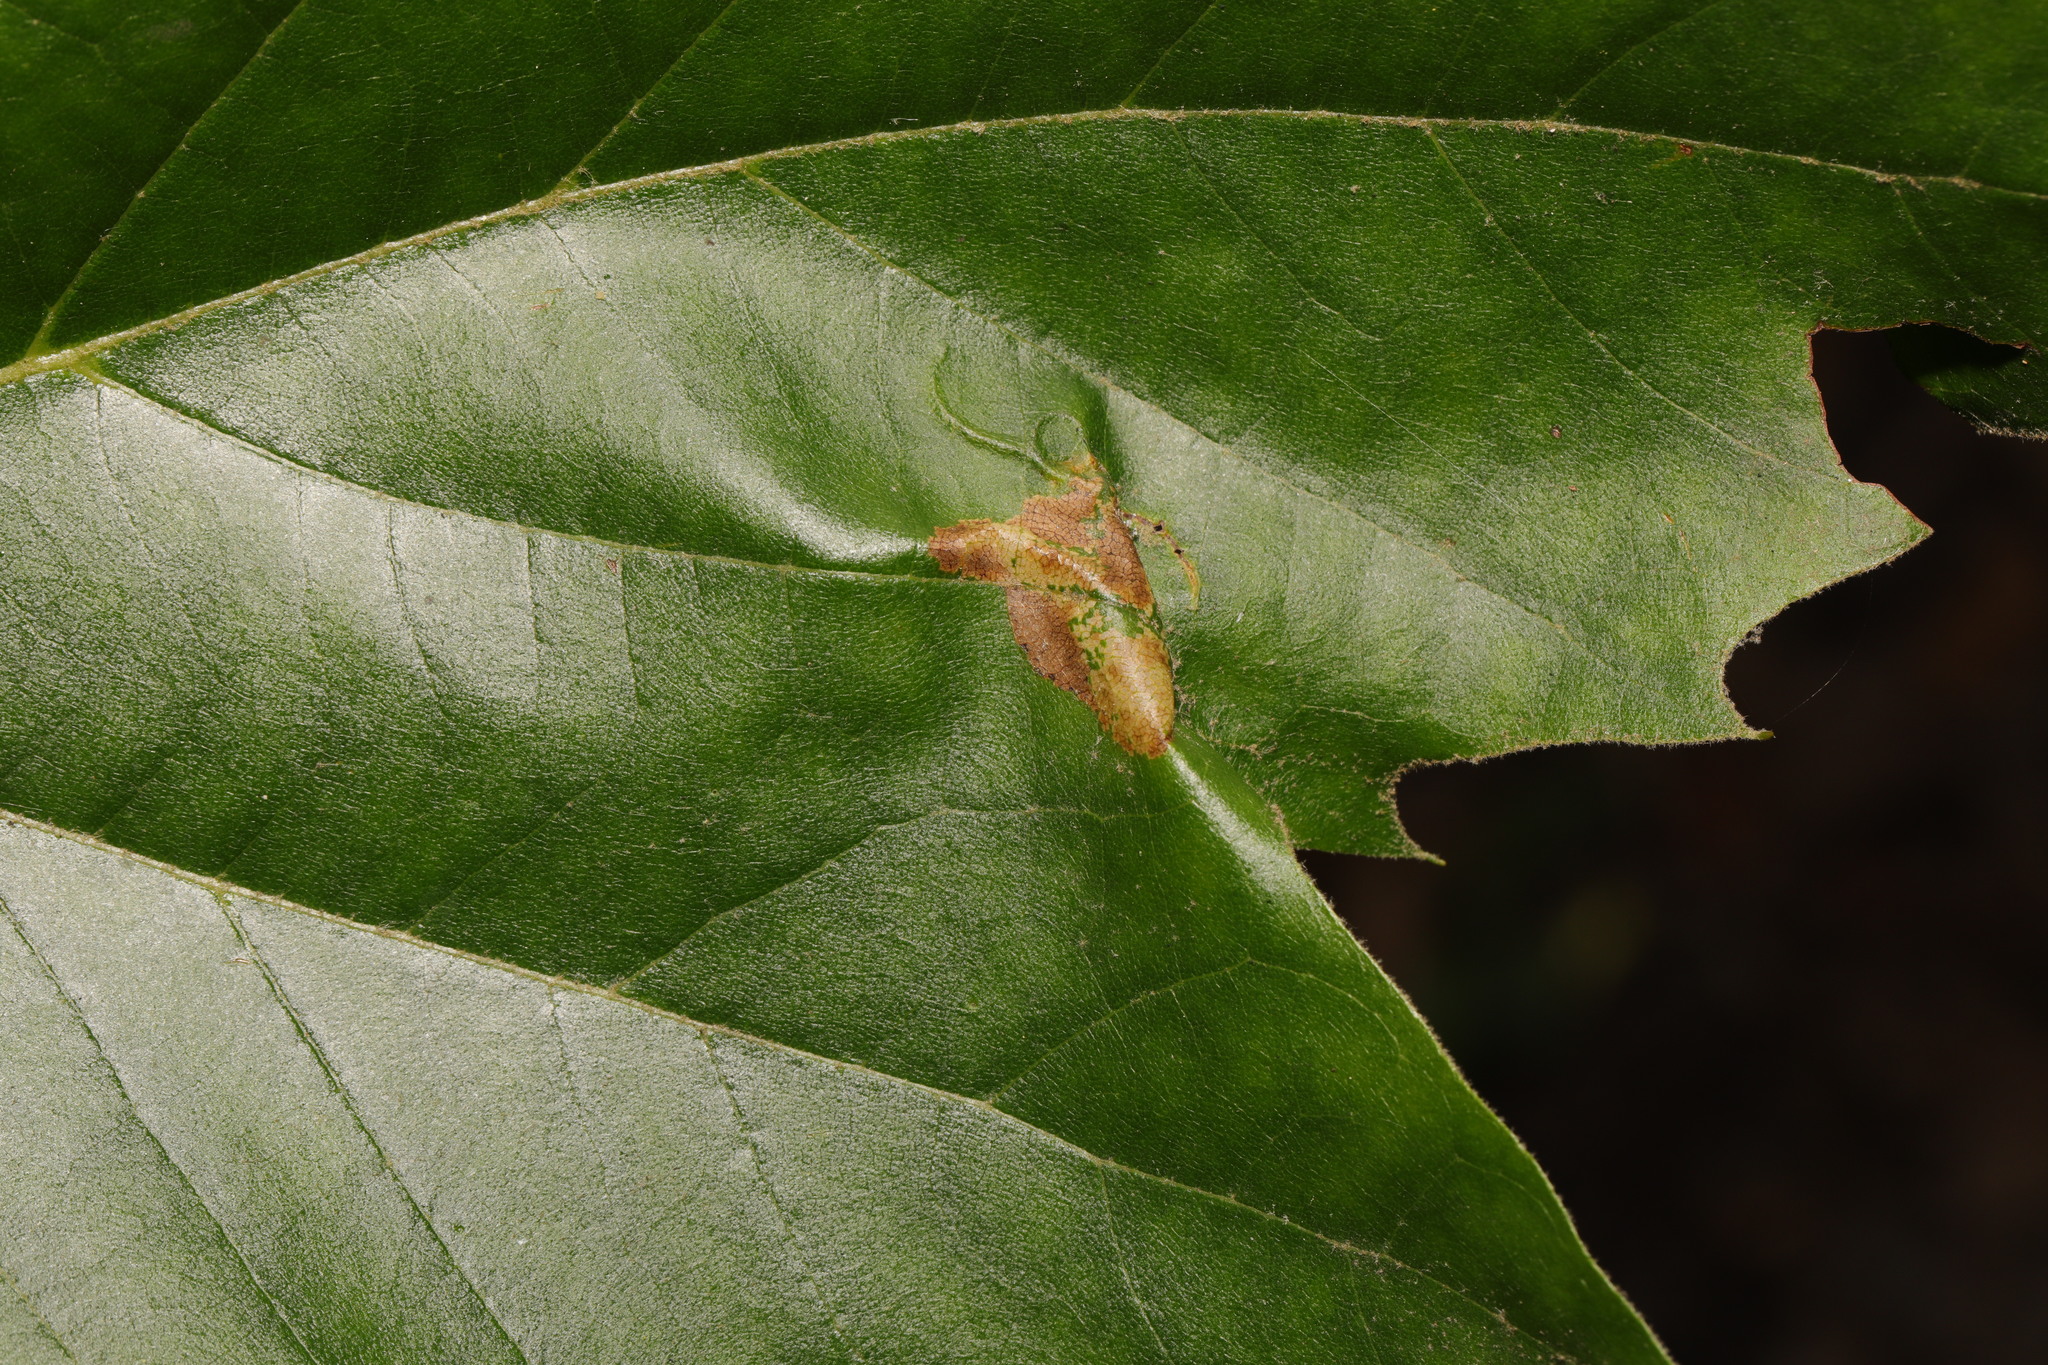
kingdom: Animalia
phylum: Arthropoda
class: Insecta
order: Lepidoptera
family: Gracillariidae
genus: Phyllonorycter
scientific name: Phyllonorycter platani
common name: London midget
